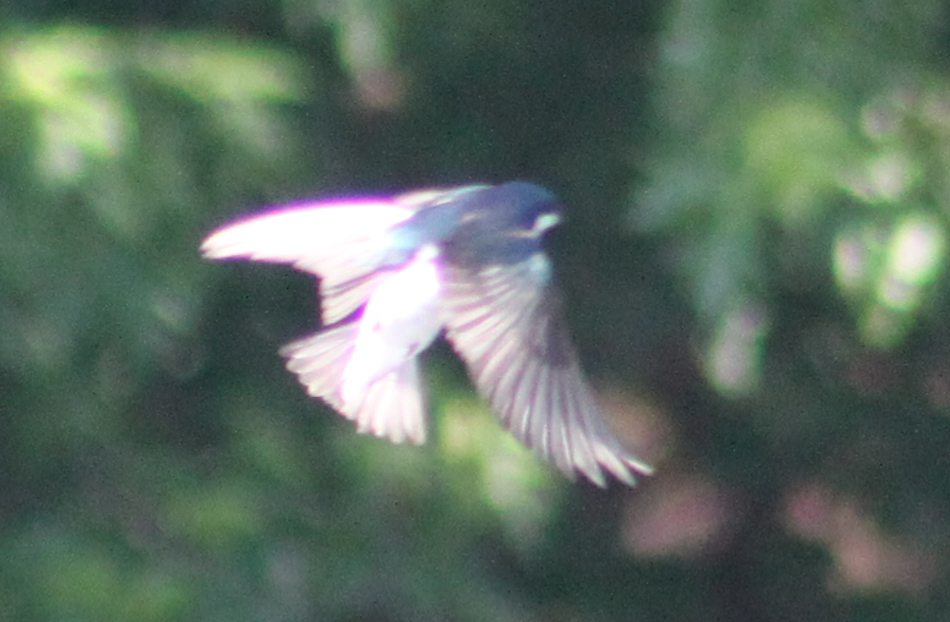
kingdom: Animalia
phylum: Chordata
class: Aves
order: Passeriformes
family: Hirundinidae
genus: Tachycineta
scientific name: Tachycineta bicolor
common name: Tree swallow
